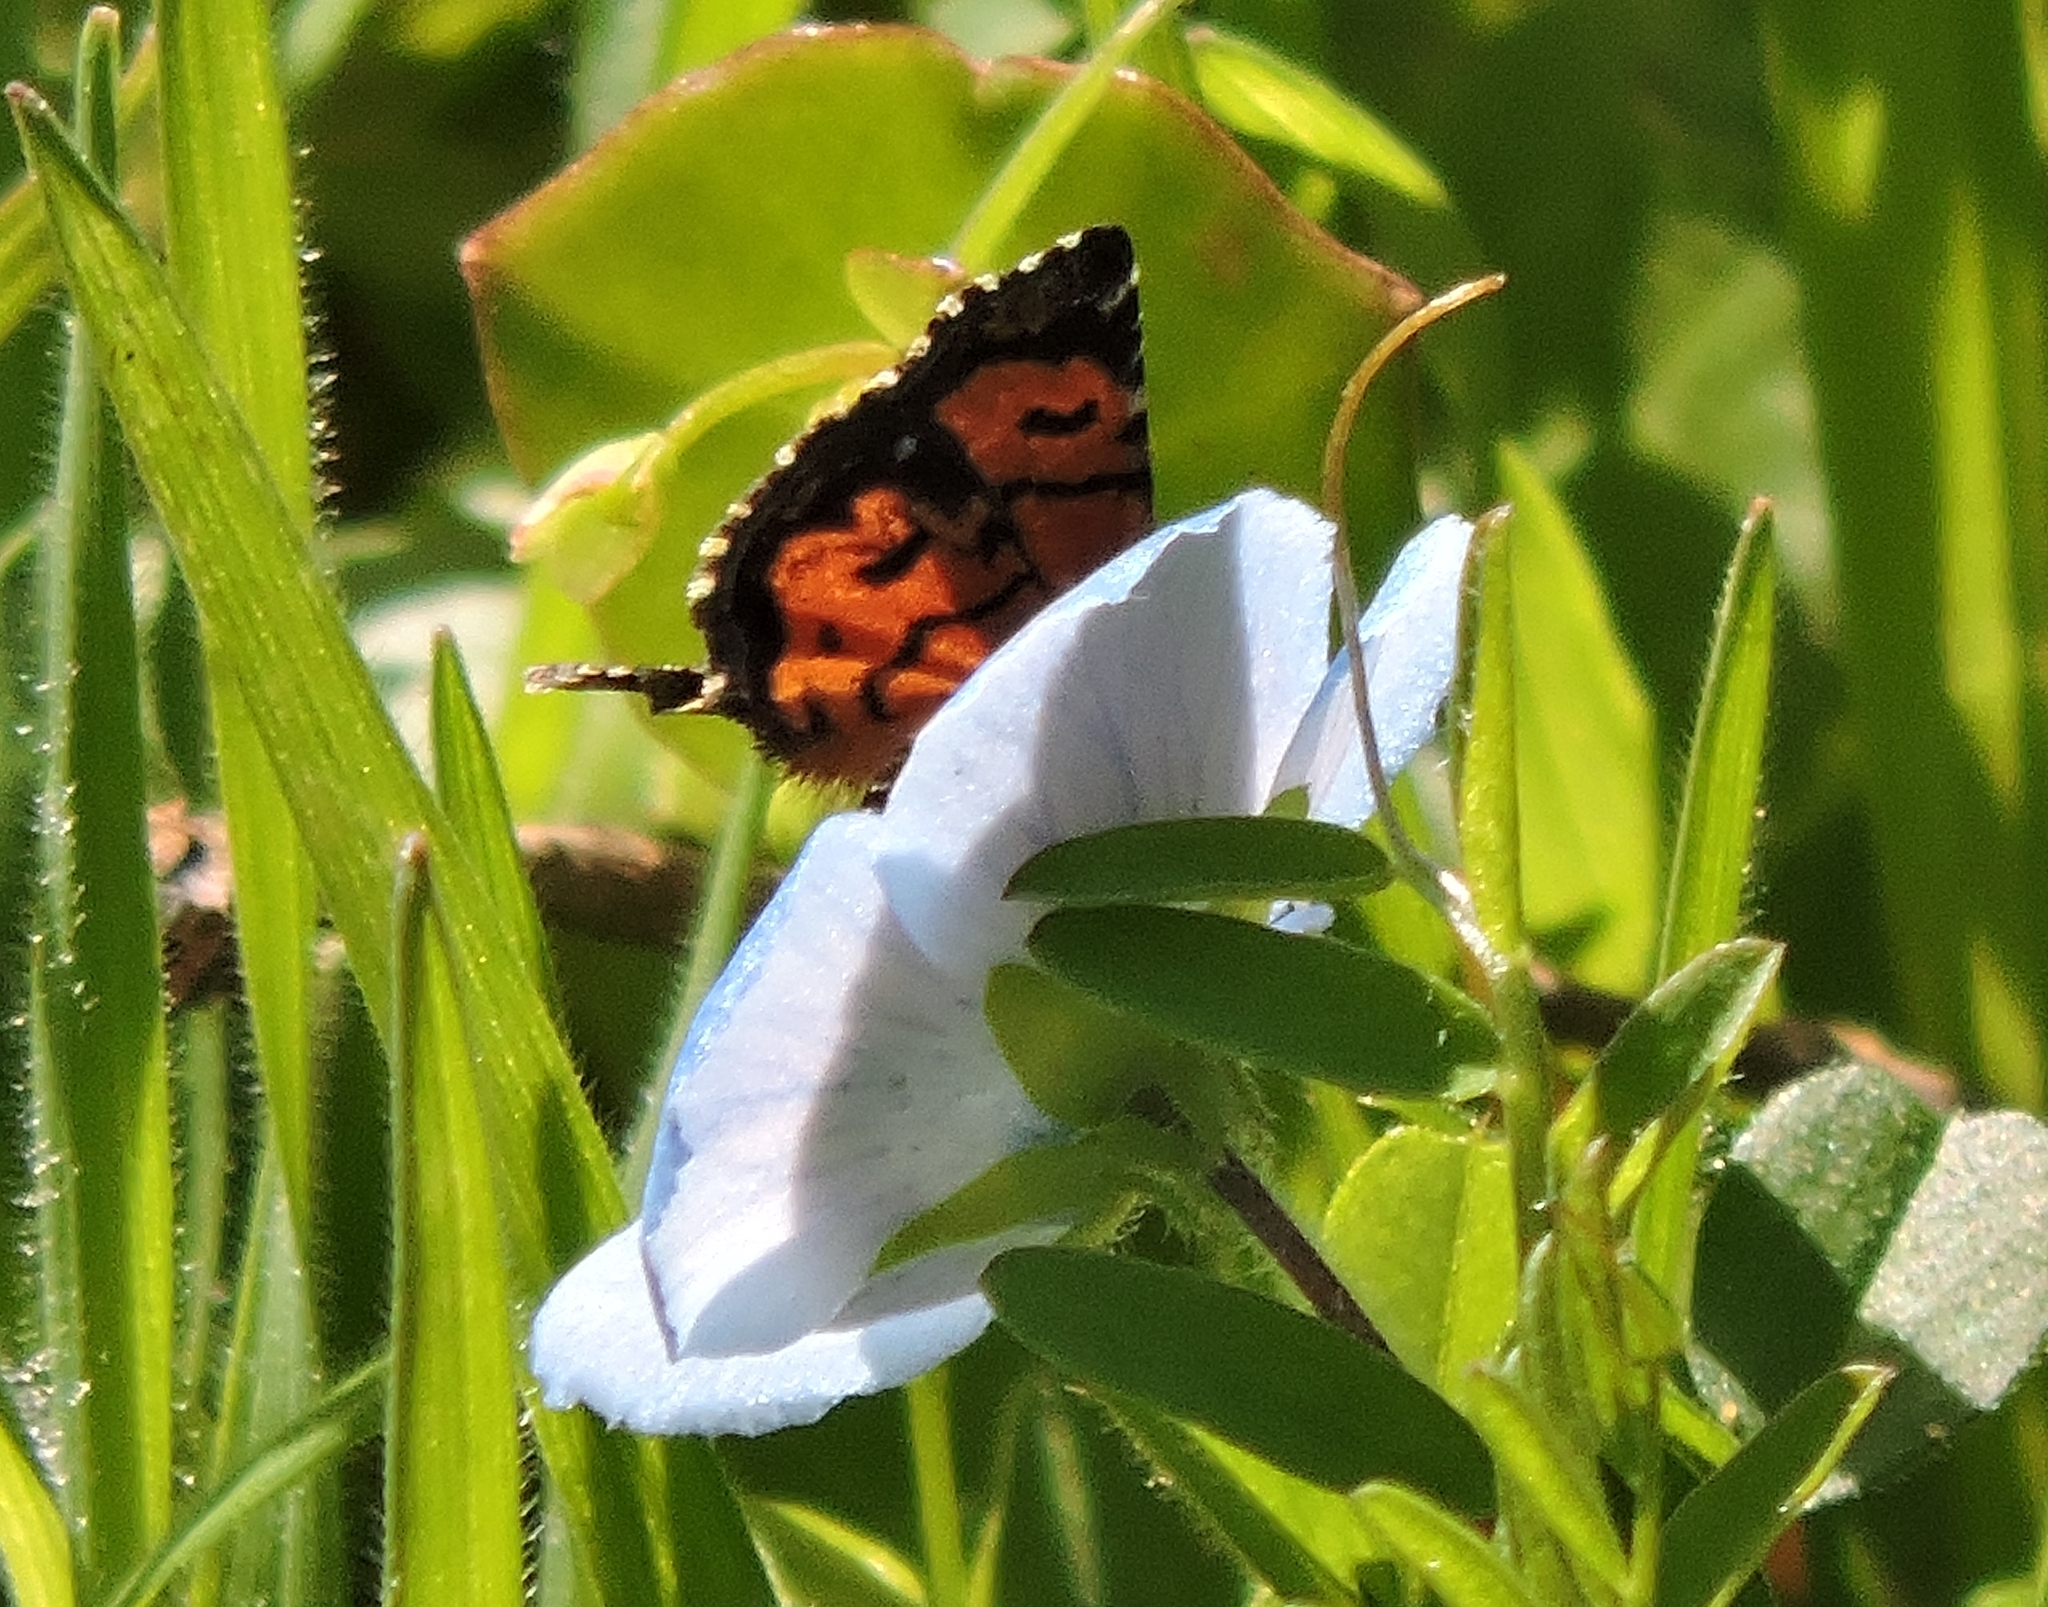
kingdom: Animalia
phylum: Arthropoda
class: Insecta
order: Lepidoptera
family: Noctuidae
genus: Annaphila
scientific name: Annaphila decia
